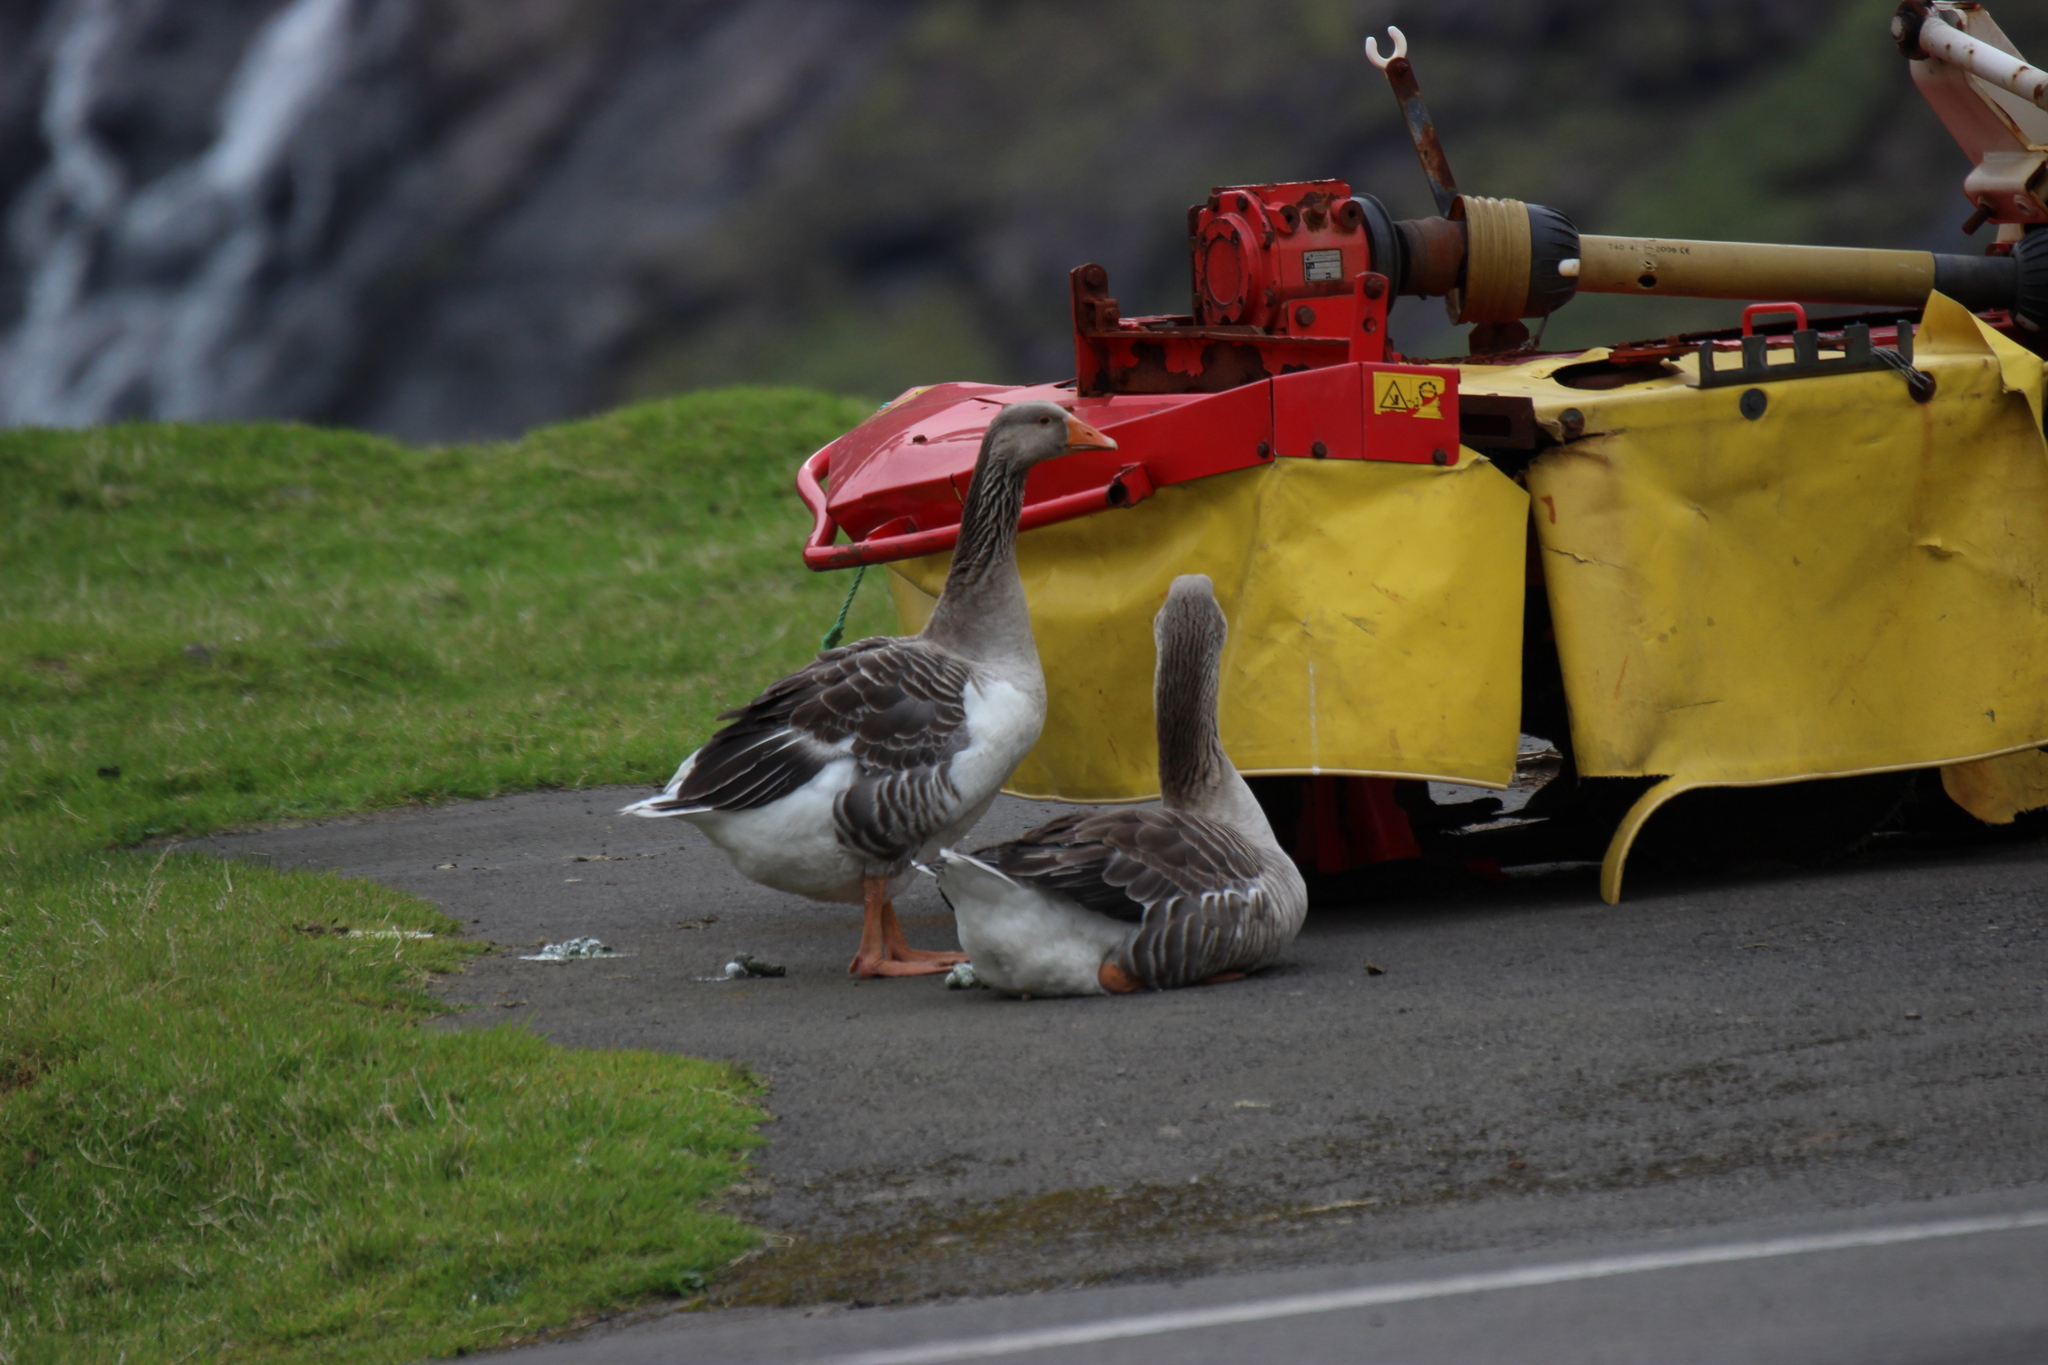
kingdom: Animalia
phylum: Chordata
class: Aves
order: Anseriformes
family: Anatidae
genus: Anser
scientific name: Anser
